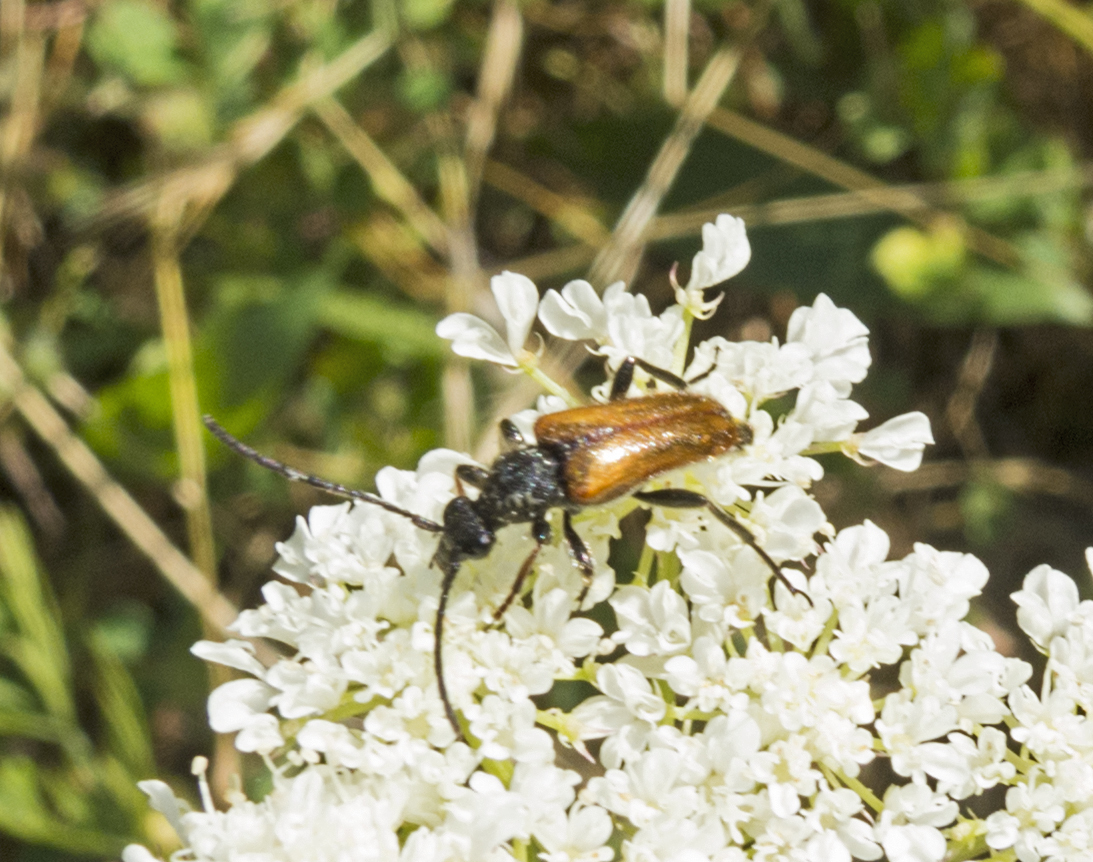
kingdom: Animalia
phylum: Arthropoda
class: Insecta
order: Coleoptera
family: Cerambycidae
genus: Pseudovadonia
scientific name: Pseudovadonia livida
